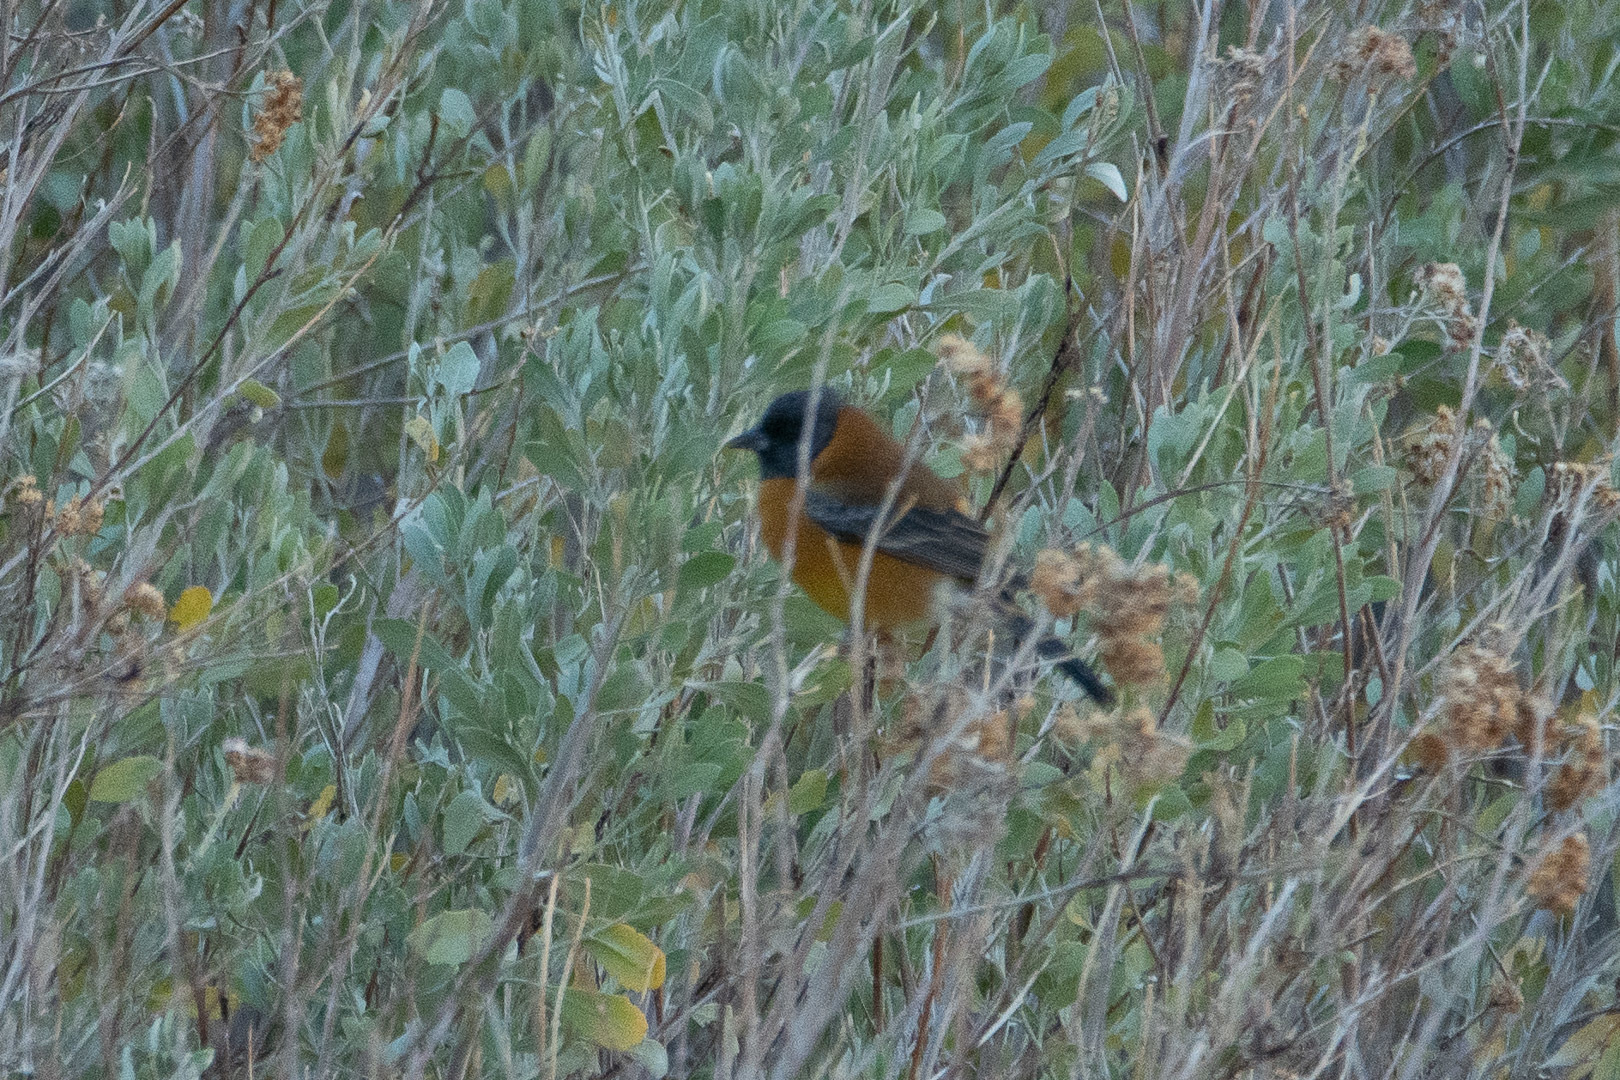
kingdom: Animalia
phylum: Chordata
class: Aves
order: Passeriformes
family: Thraupidae
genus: Phrygilus
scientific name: Phrygilus atriceps
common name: Black-hooded sierra finch
